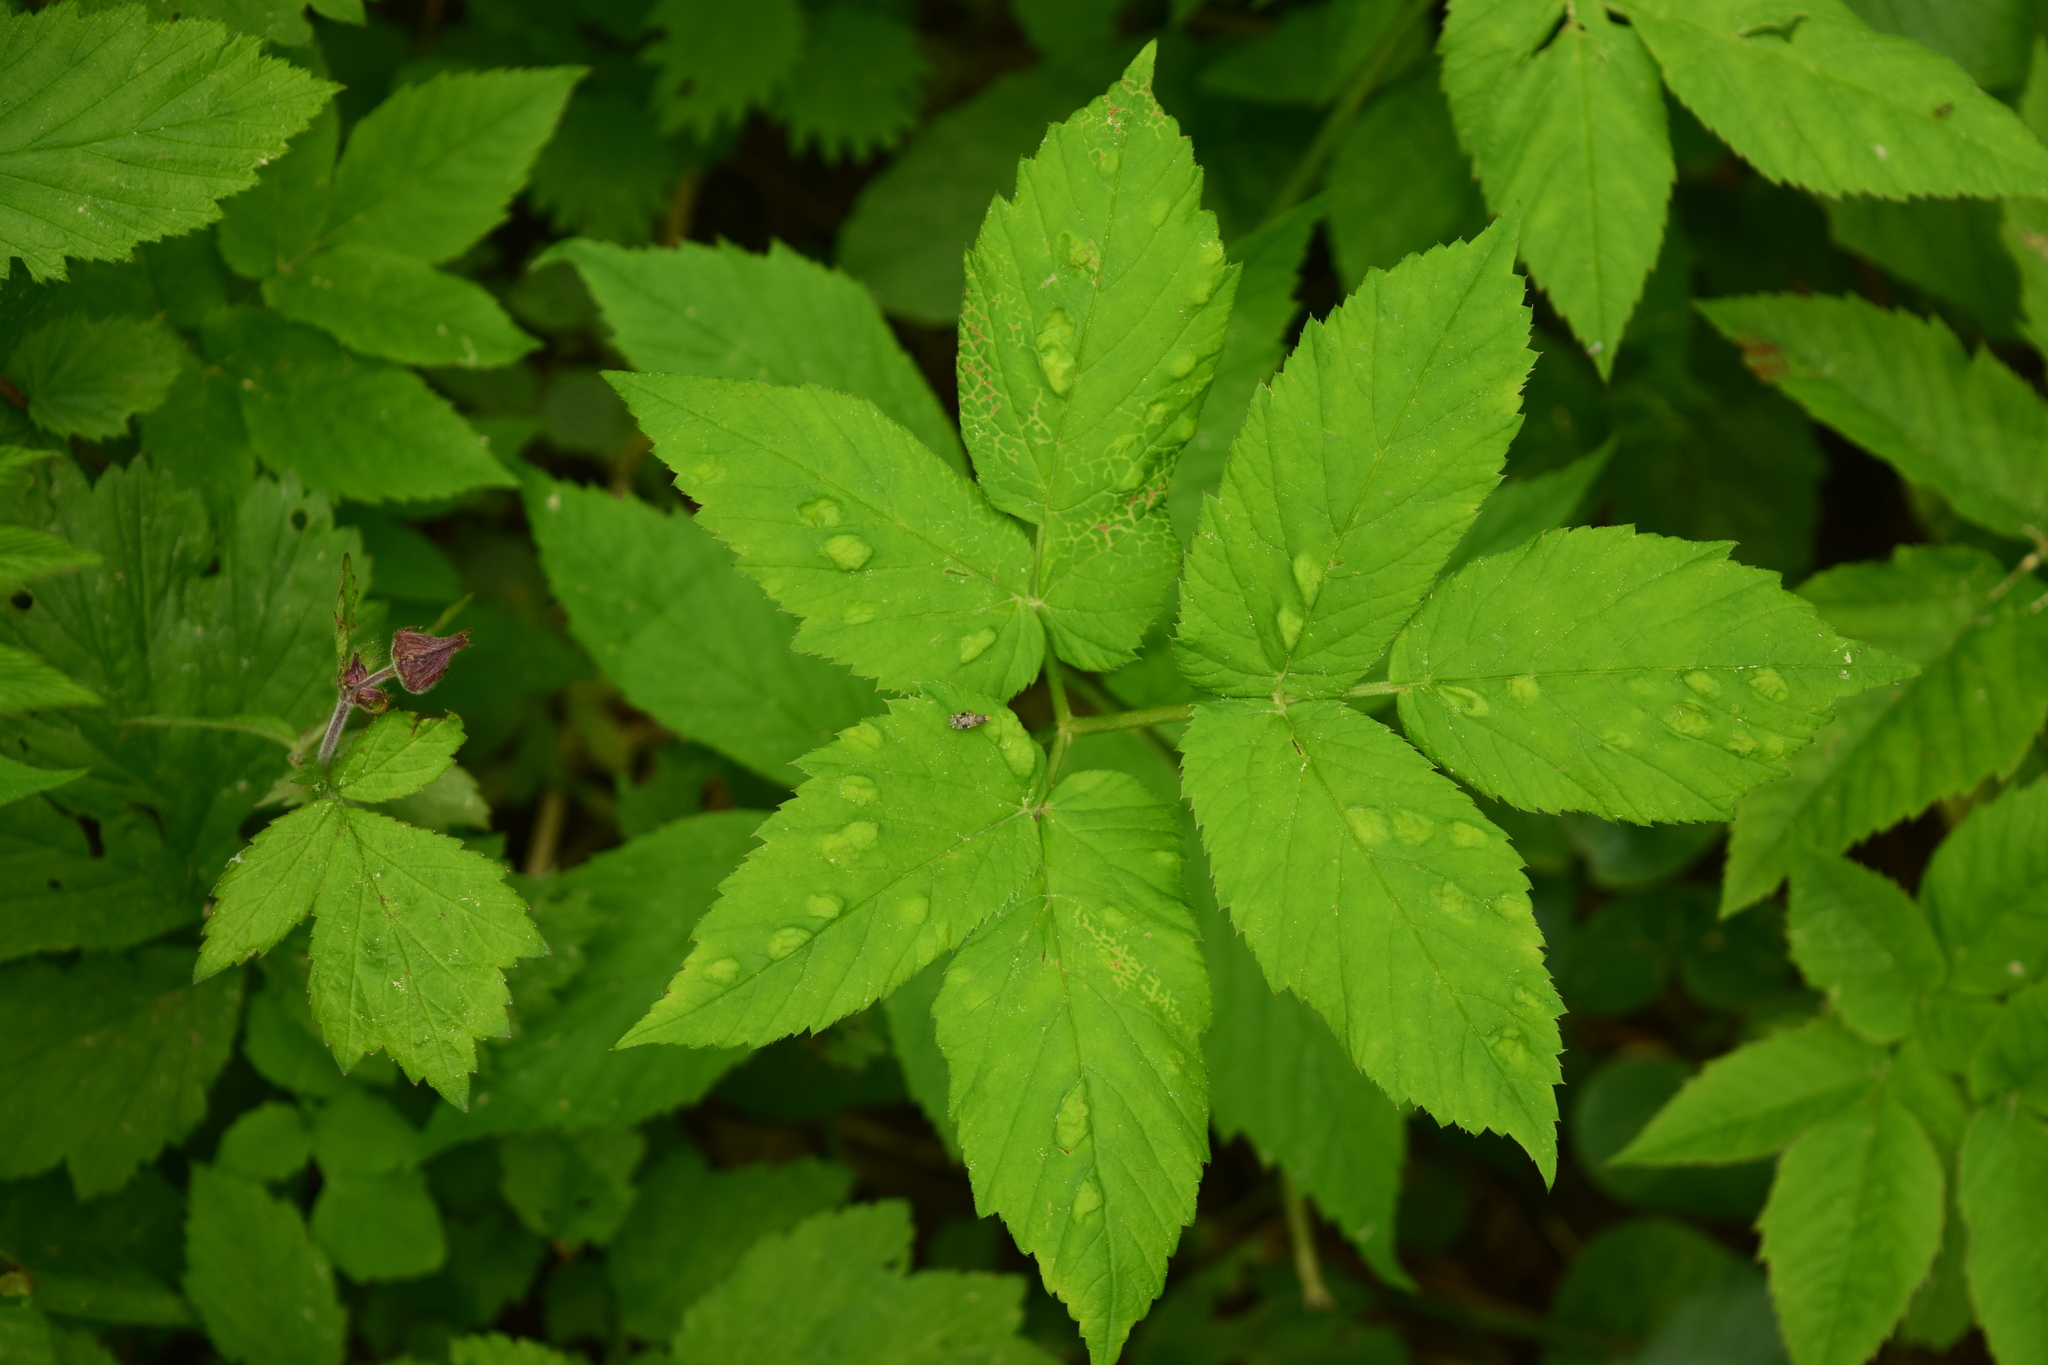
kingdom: Plantae
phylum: Tracheophyta
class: Magnoliopsida
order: Apiales
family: Apiaceae
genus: Aegopodium
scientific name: Aegopodium podagraria
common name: Ground-elder
